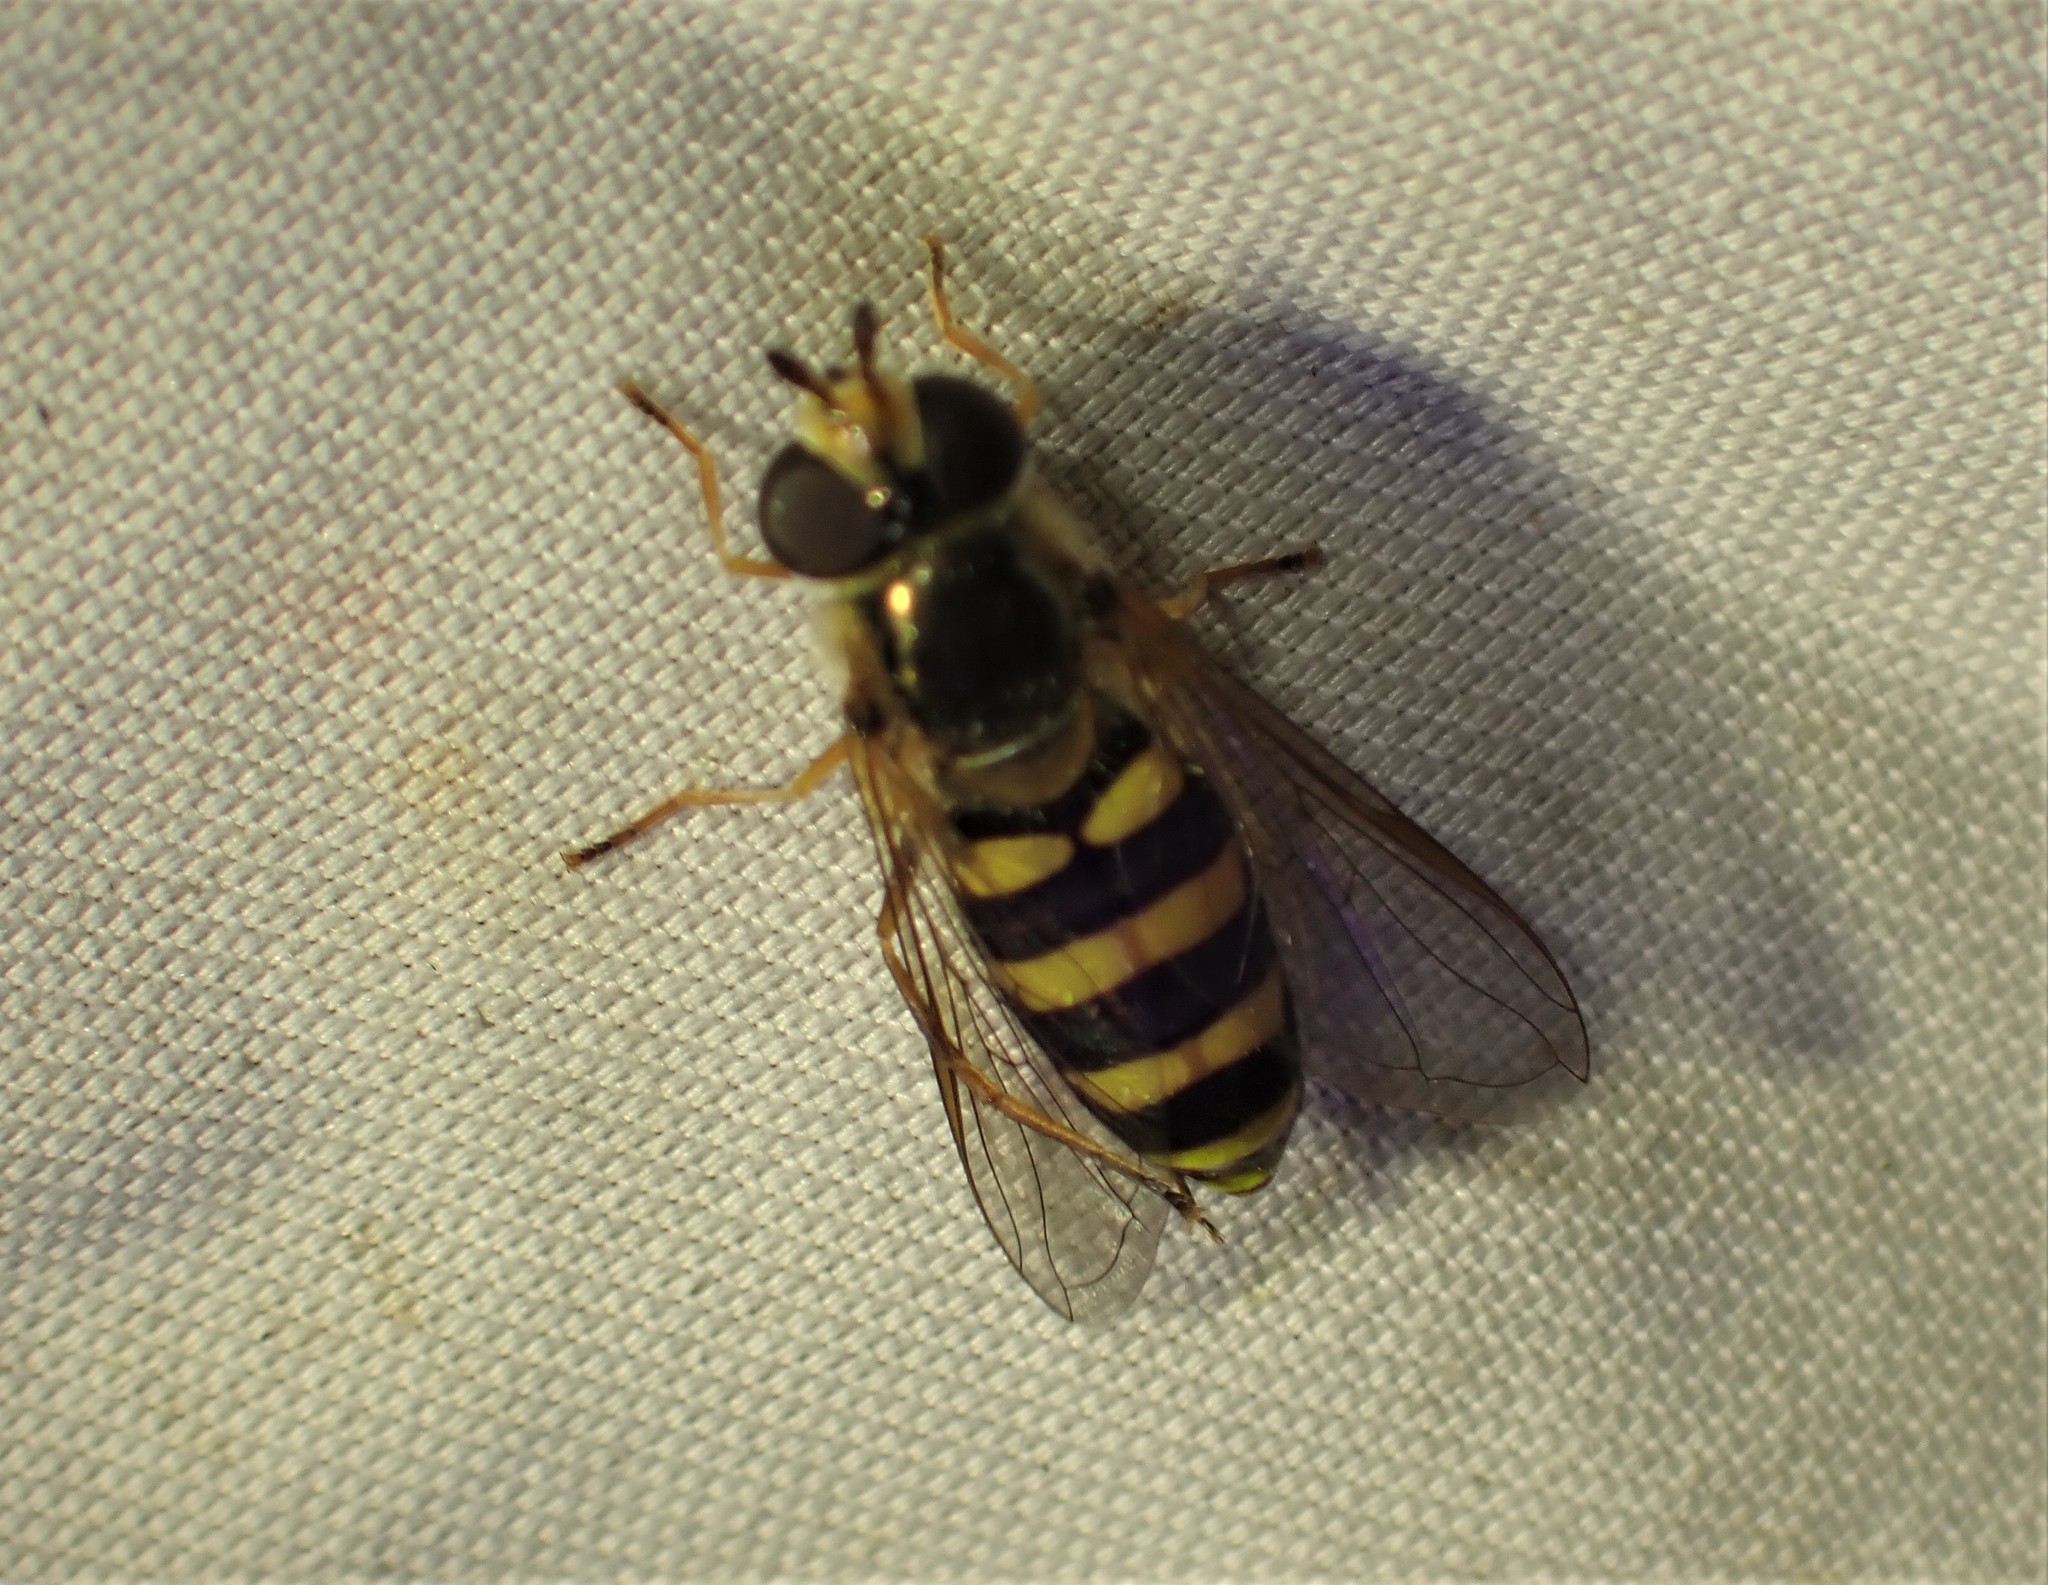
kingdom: Animalia
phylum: Arthropoda
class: Insecta
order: Diptera
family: Syrphidae
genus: Eupeodes
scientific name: Eupeodes
